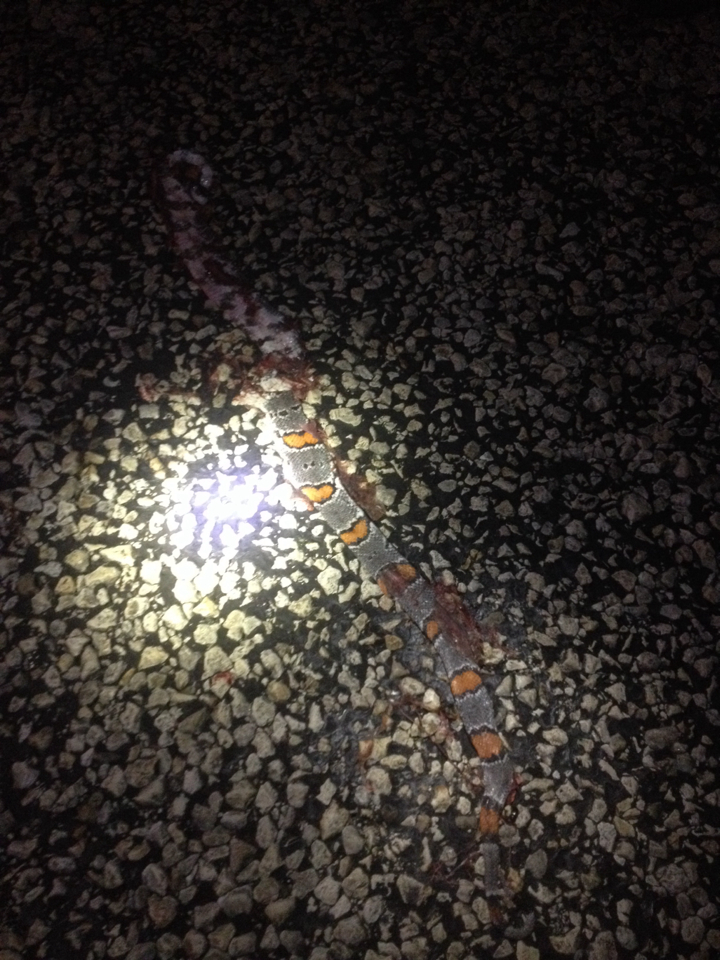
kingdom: Animalia
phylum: Chordata
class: Squamata
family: Colubridae
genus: Lampropeltis
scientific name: Lampropeltis alterna
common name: Gray-banded kingsnake
